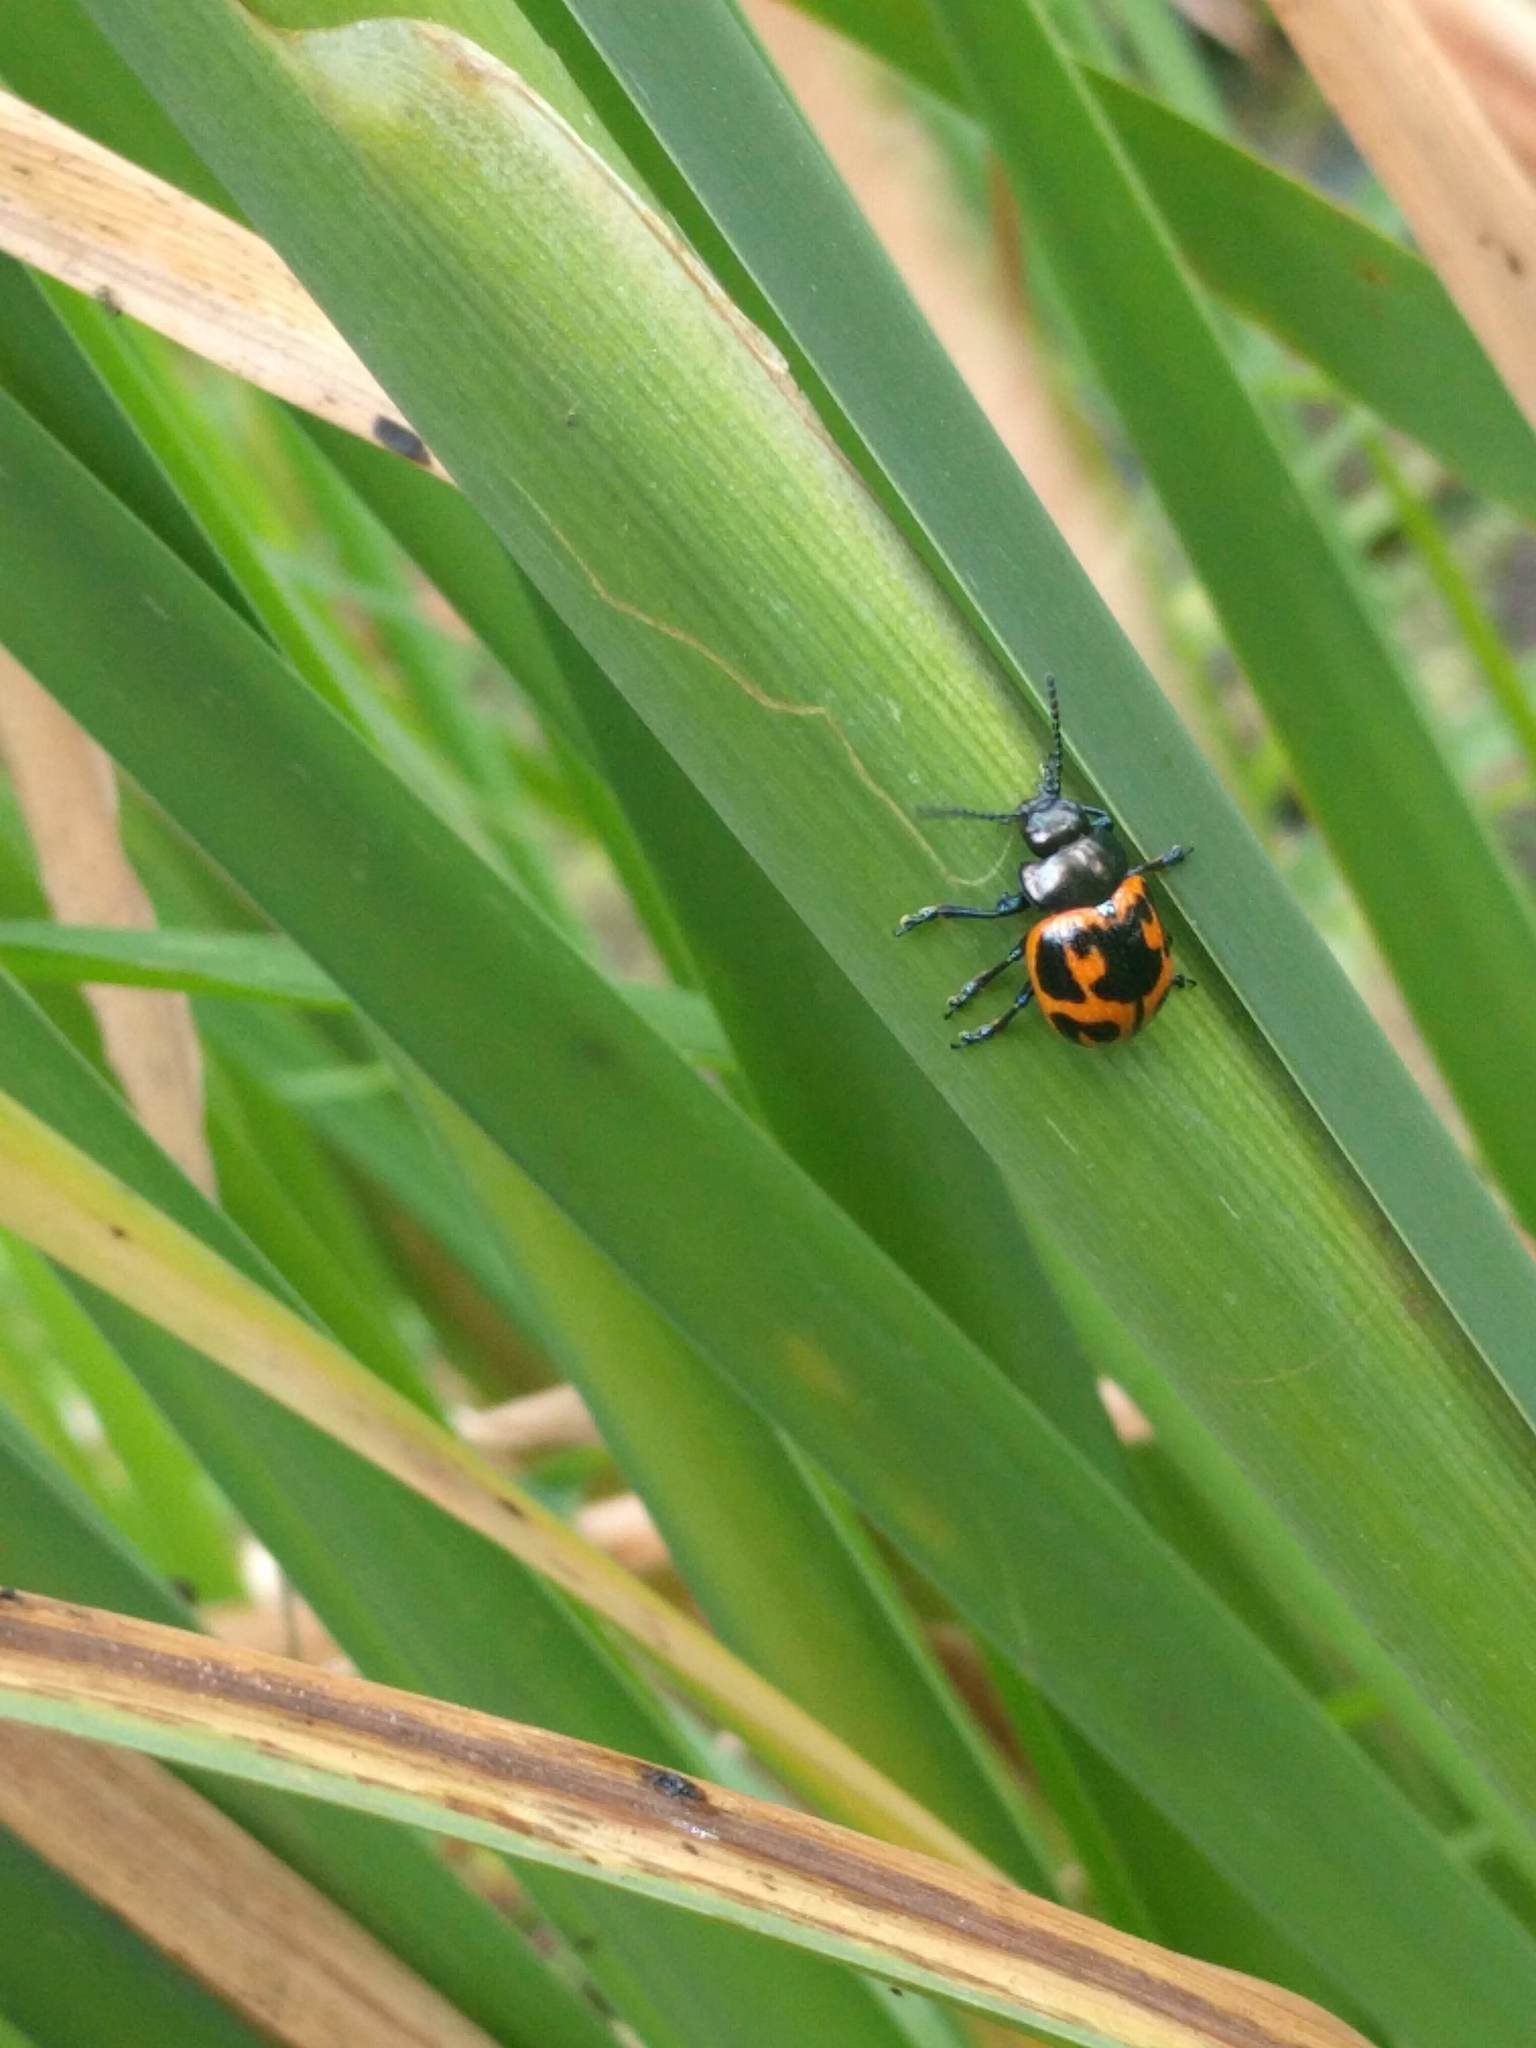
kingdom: Animalia
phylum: Arthropoda
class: Insecta
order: Coleoptera
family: Chrysomelidae
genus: Labidomera
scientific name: Labidomera clivicollis
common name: Swamp milkweed leaf beetle
